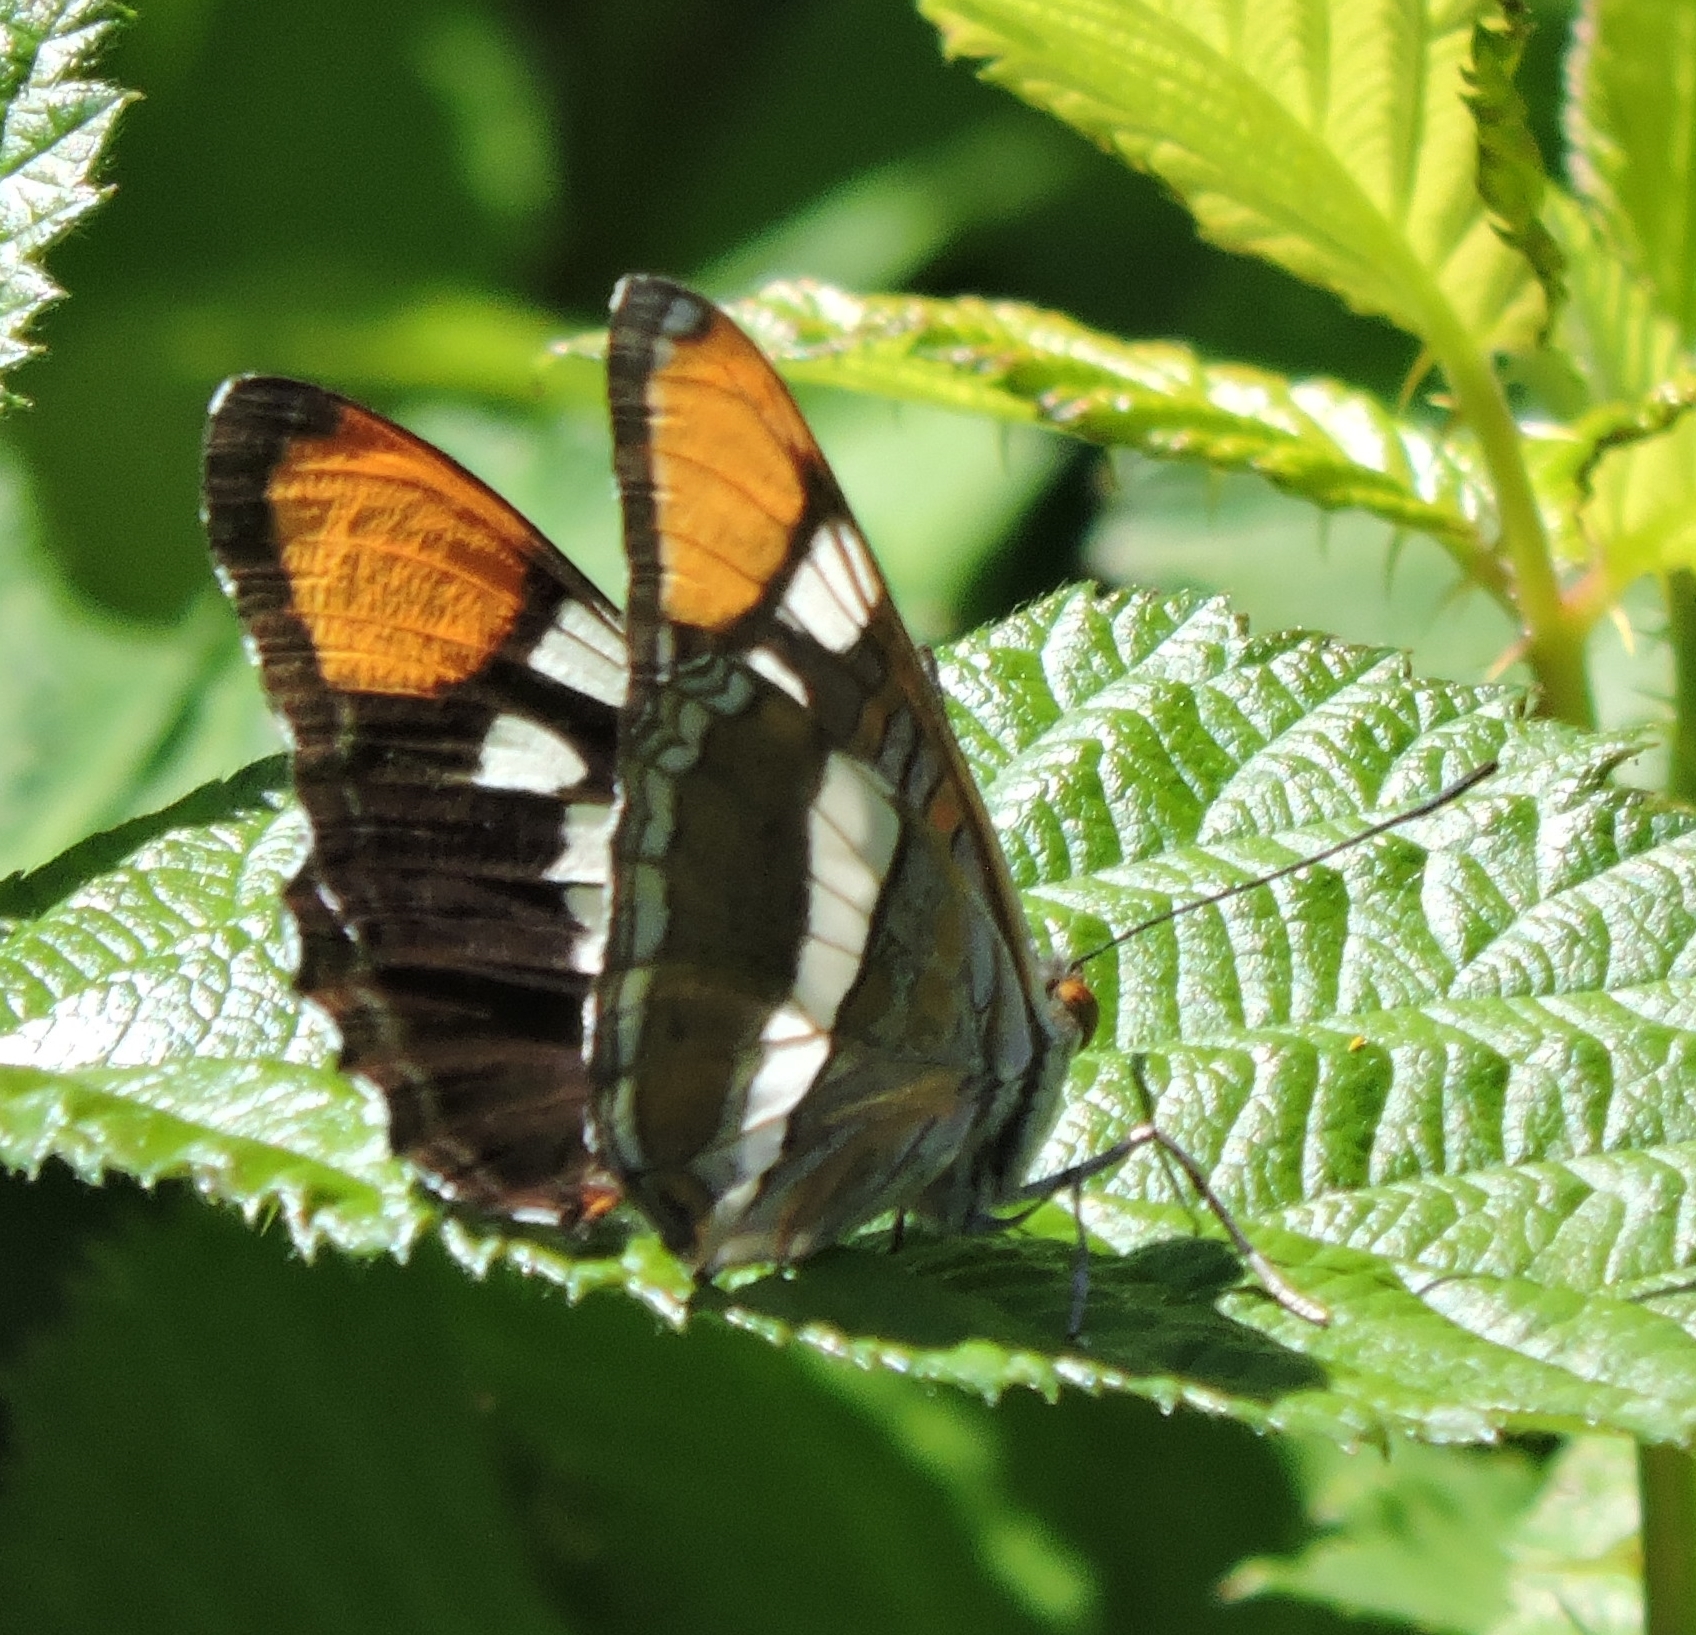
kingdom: Animalia
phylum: Arthropoda
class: Insecta
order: Lepidoptera
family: Nymphalidae
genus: Limenitis
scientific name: Limenitis bredowii
